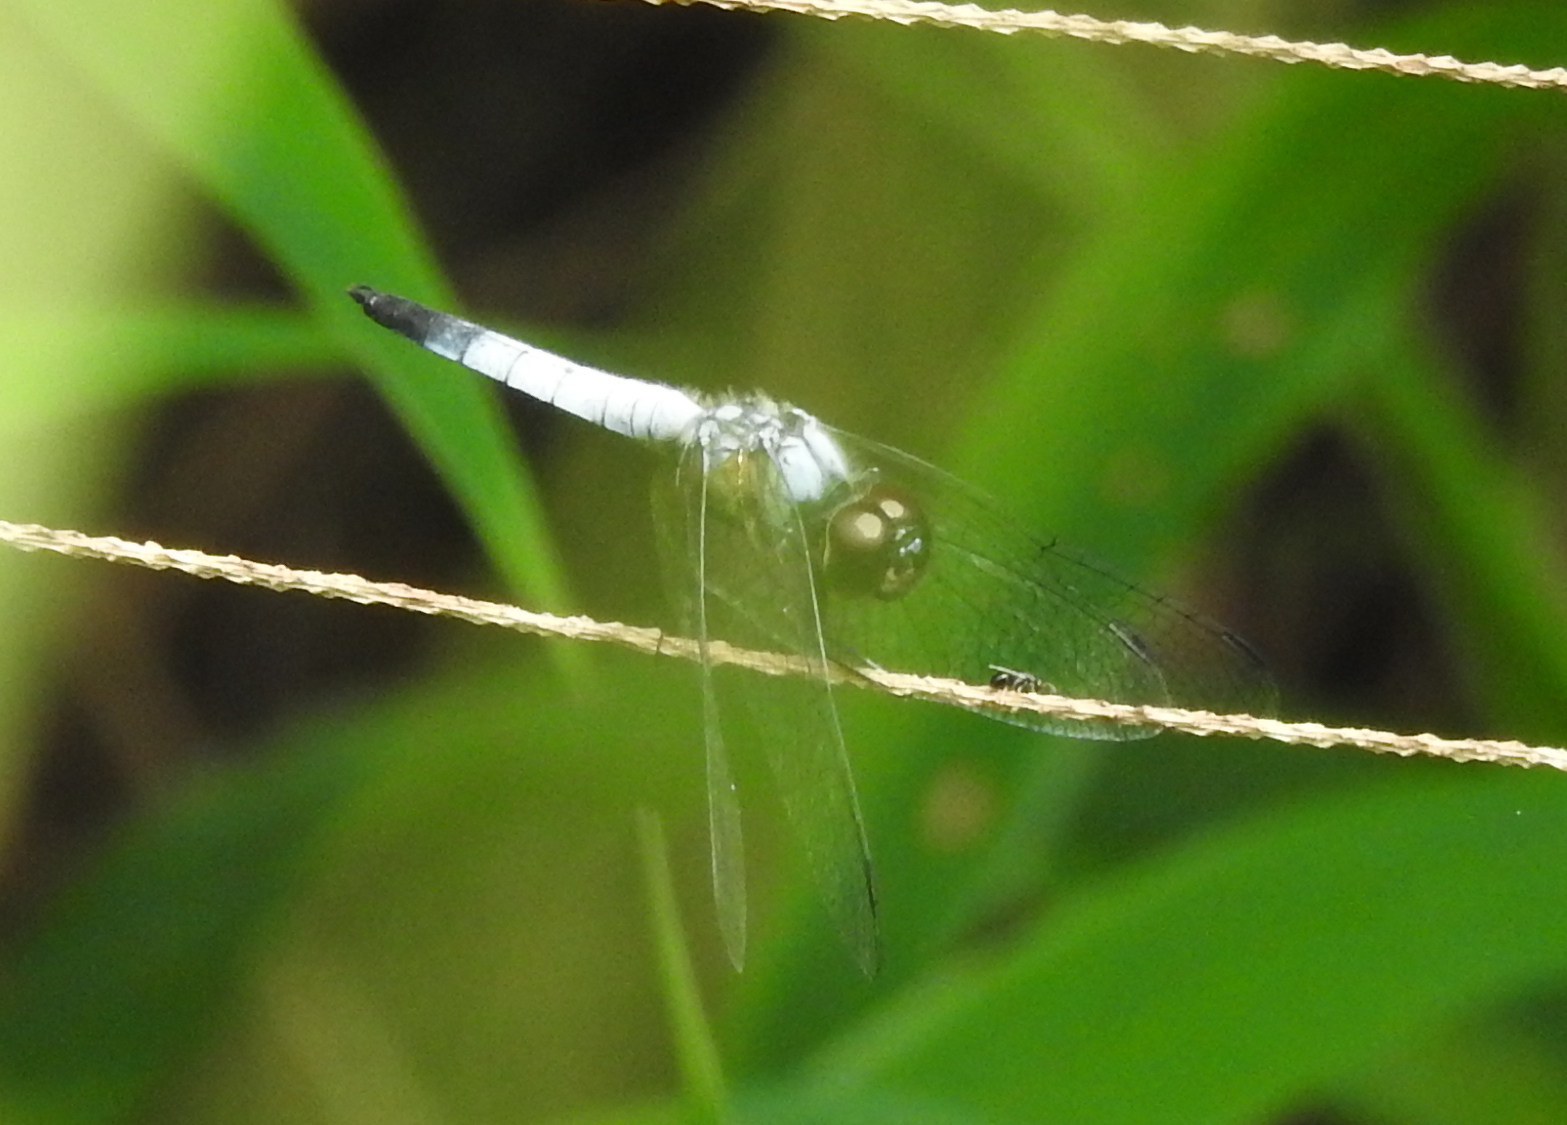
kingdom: Animalia
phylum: Arthropoda
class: Insecta
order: Odonata
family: Libellulidae
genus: Aethriamanta
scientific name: Aethriamanta gracilis
